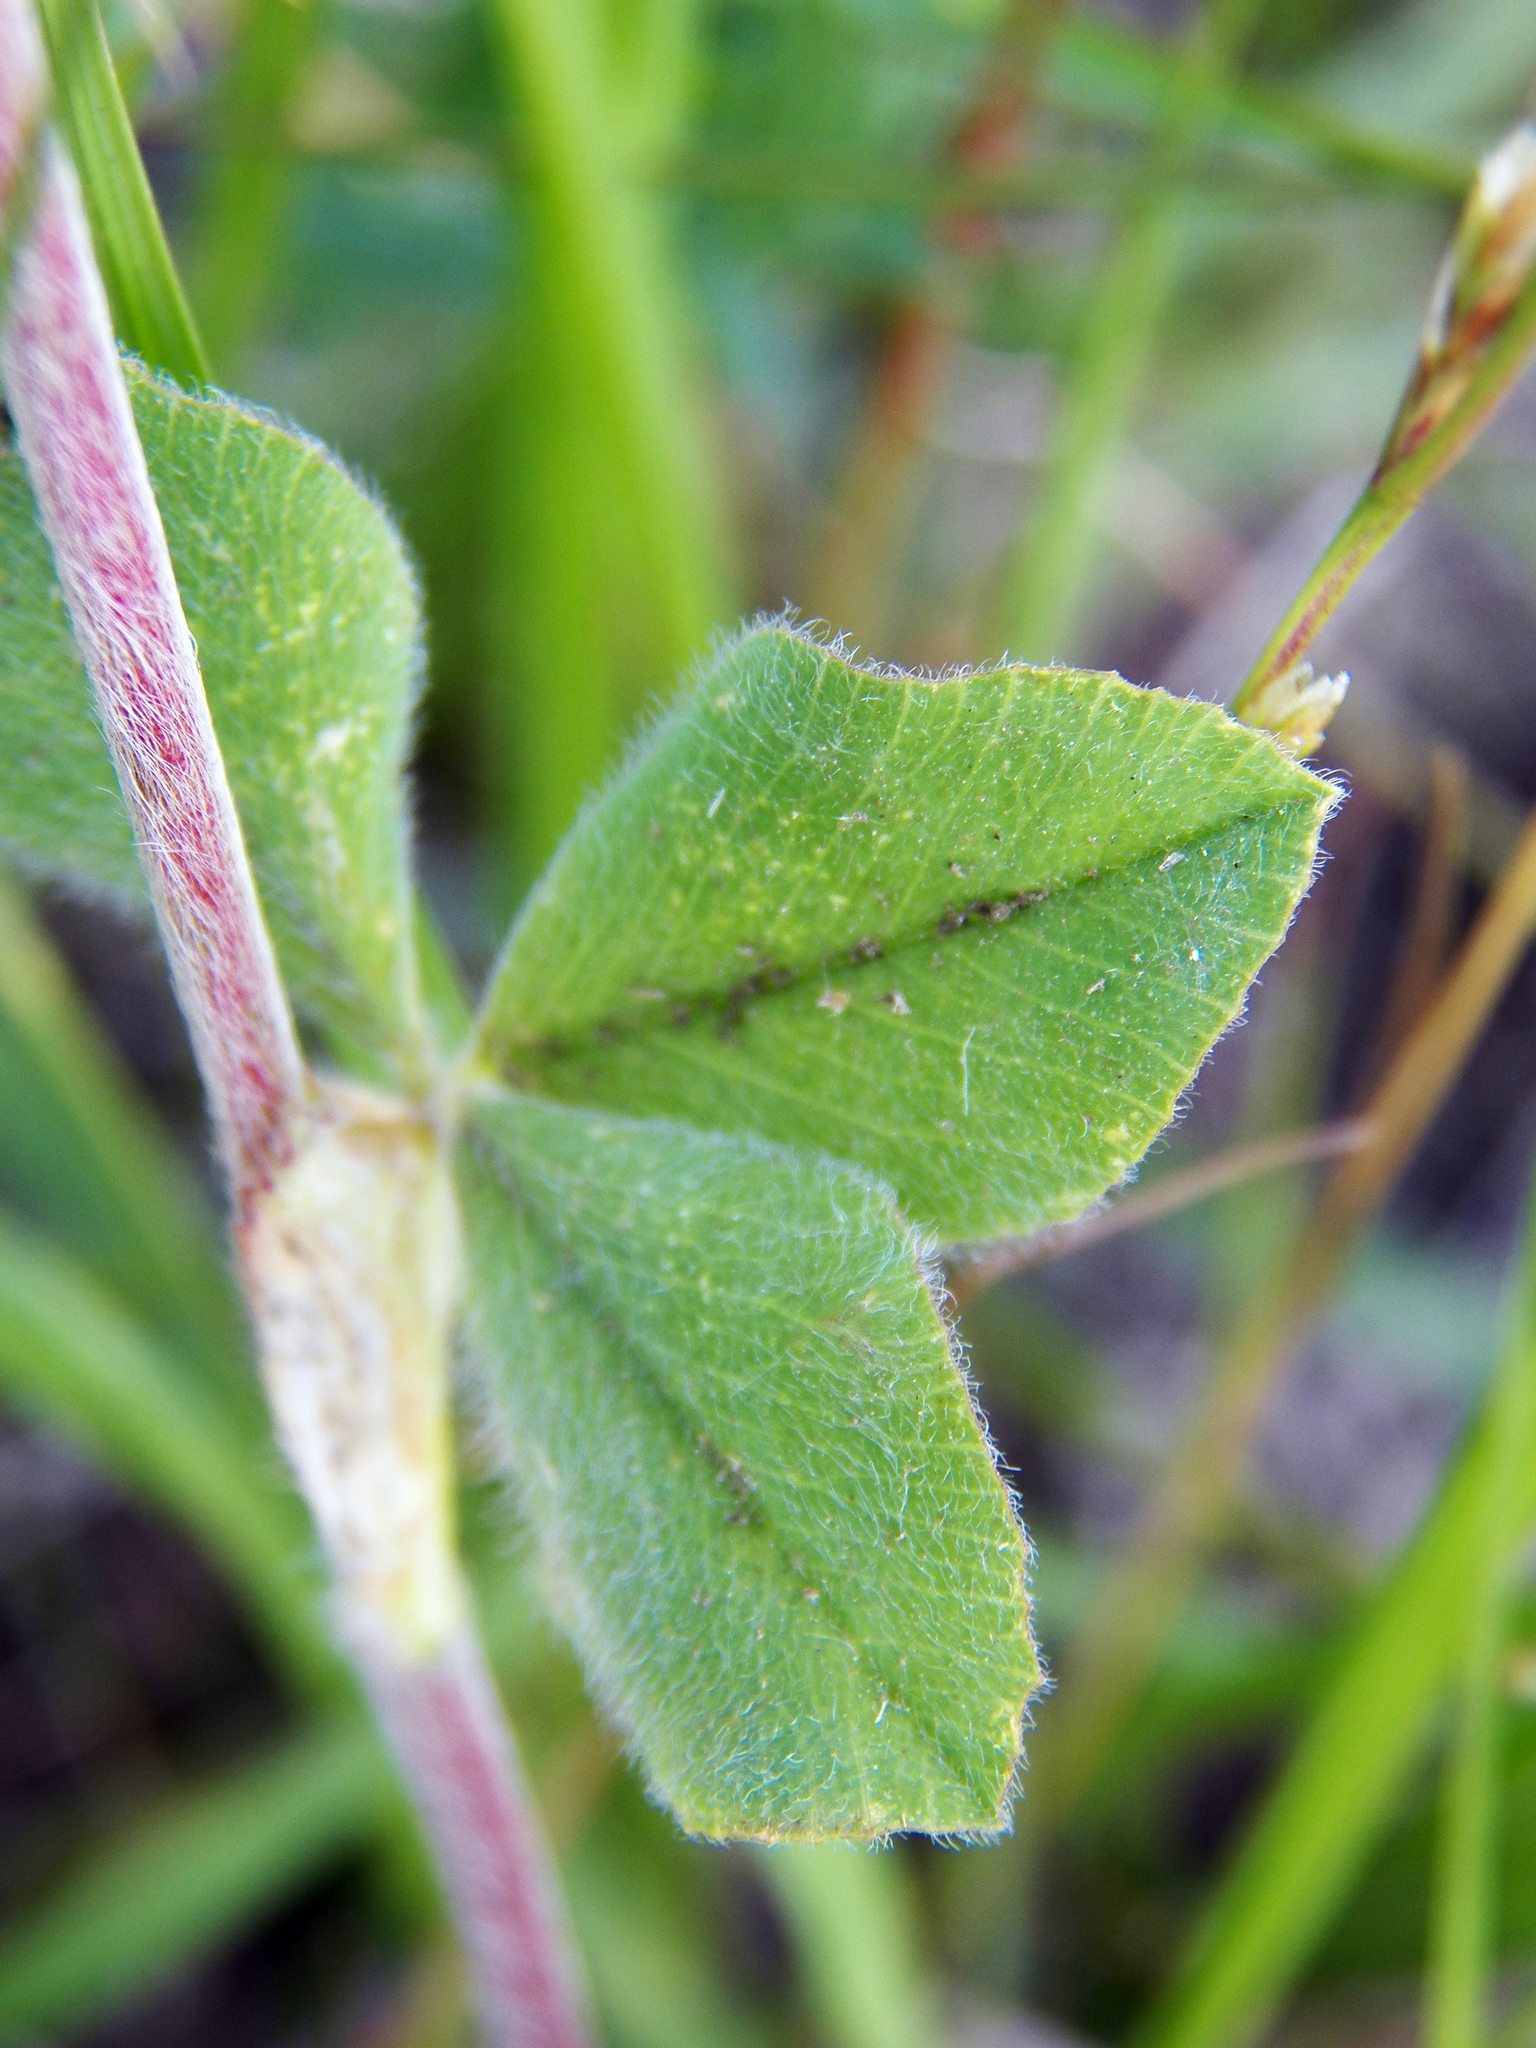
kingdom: Plantae
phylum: Tracheophyta
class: Magnoliopsida
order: Fabales
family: Fabaceae
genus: Trifolium
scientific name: Trifolium incarnatum
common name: Crimson clover
